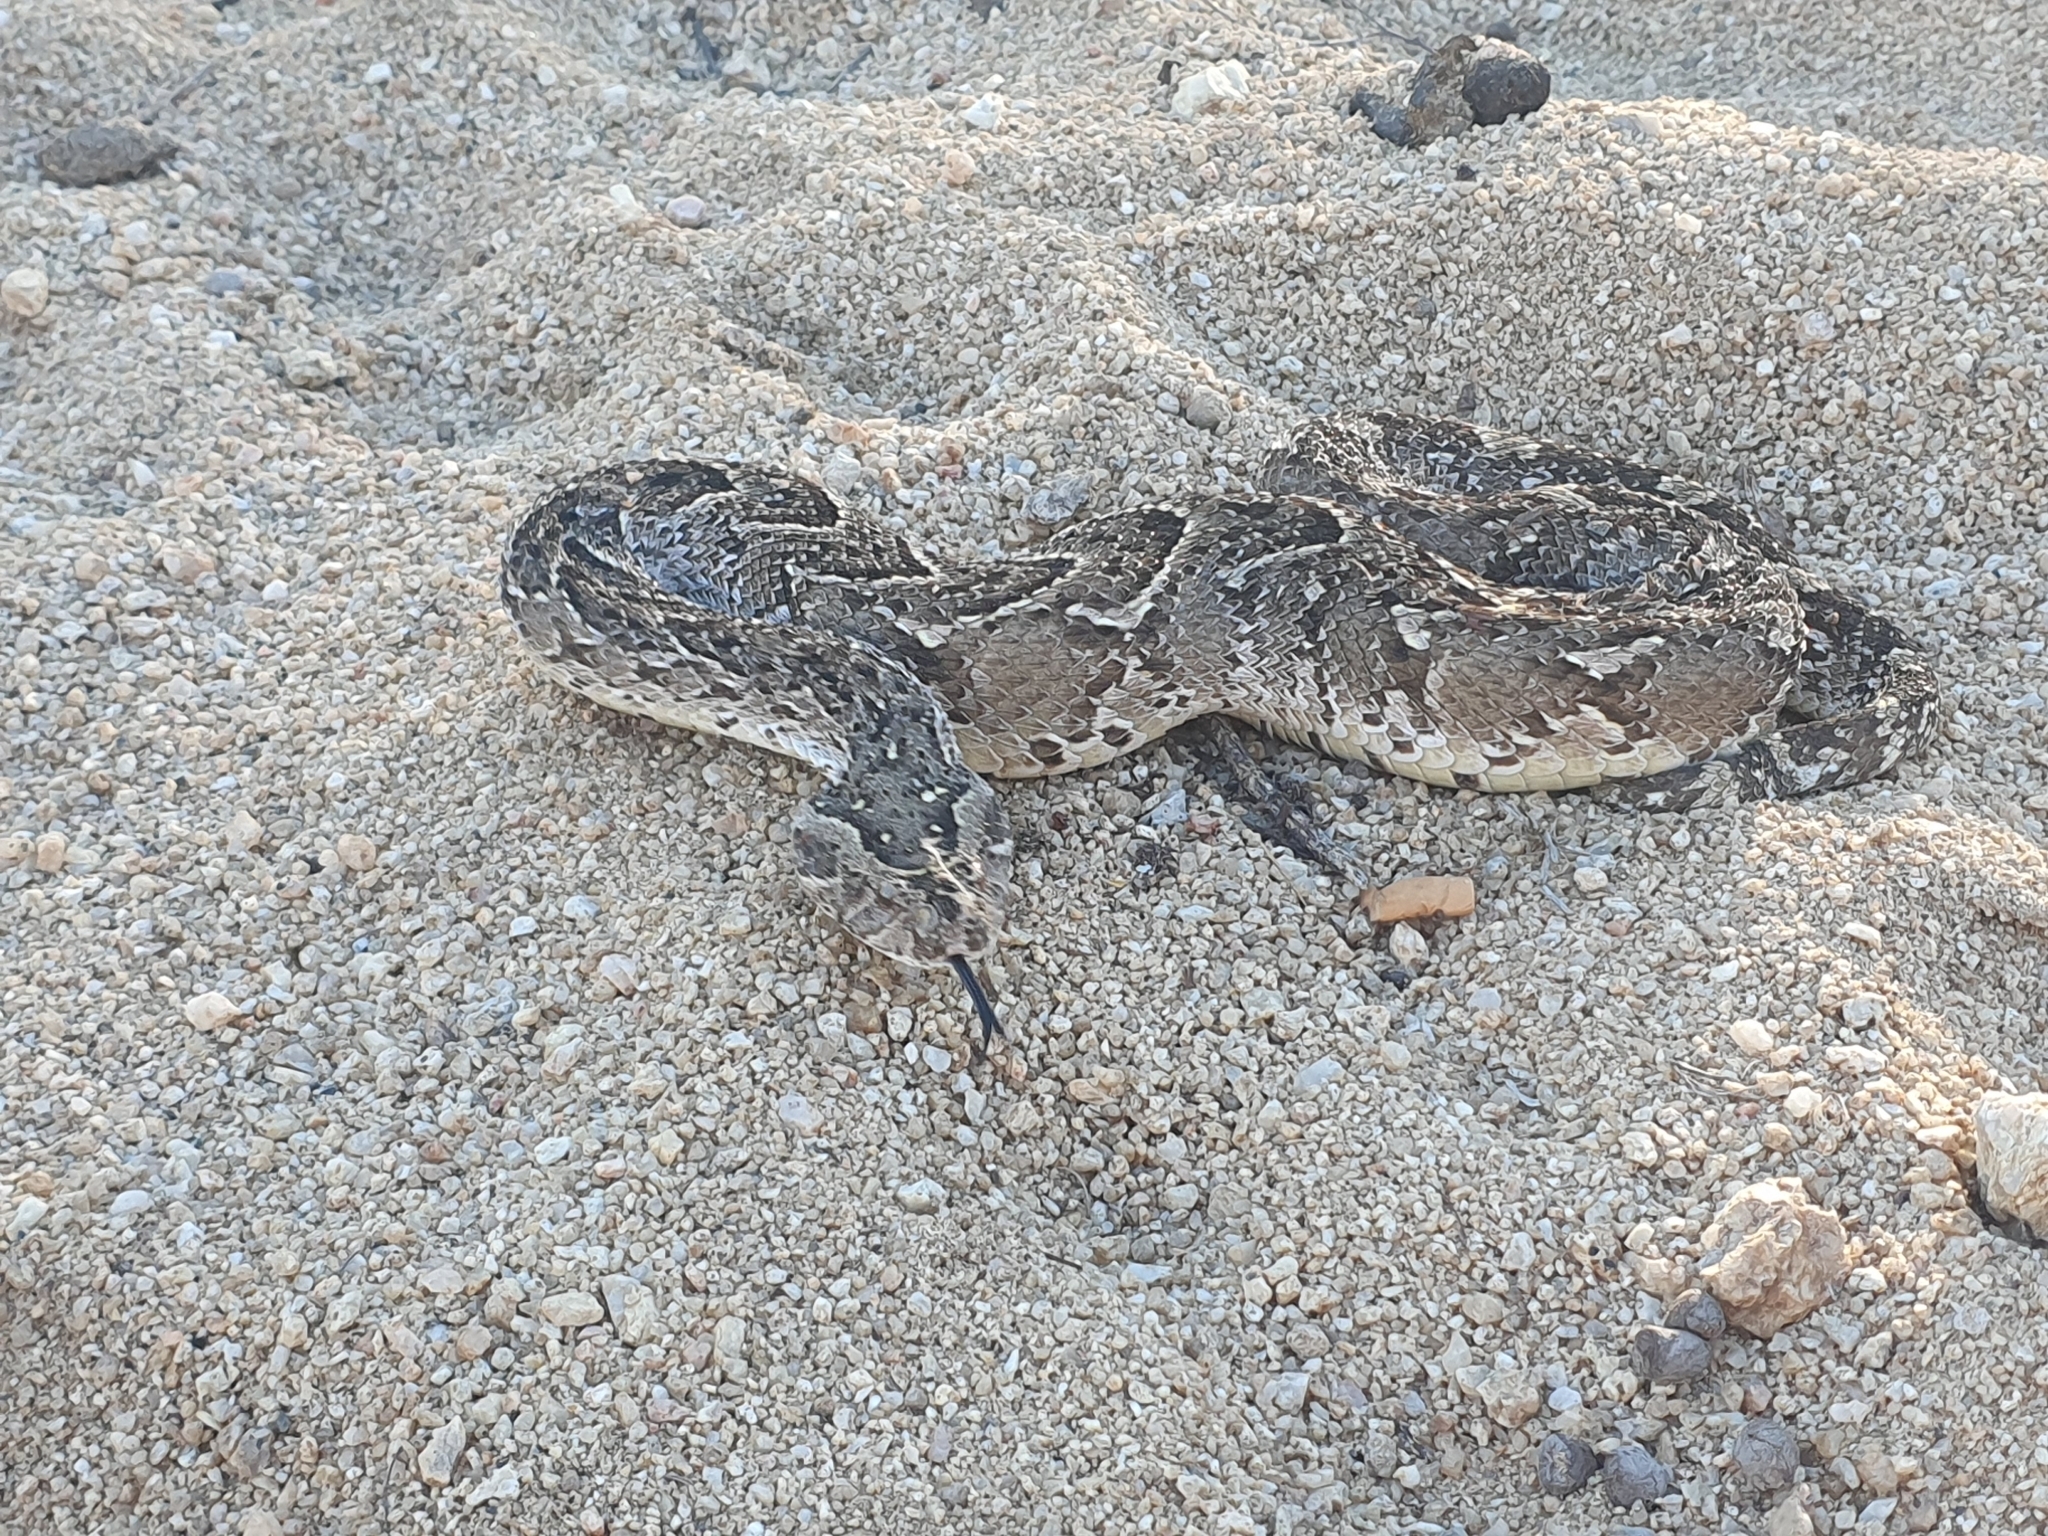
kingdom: Animalia
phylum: Chordata
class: Squamata
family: Viperidae
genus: Bitis
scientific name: Bitis arietans
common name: Puff adder
